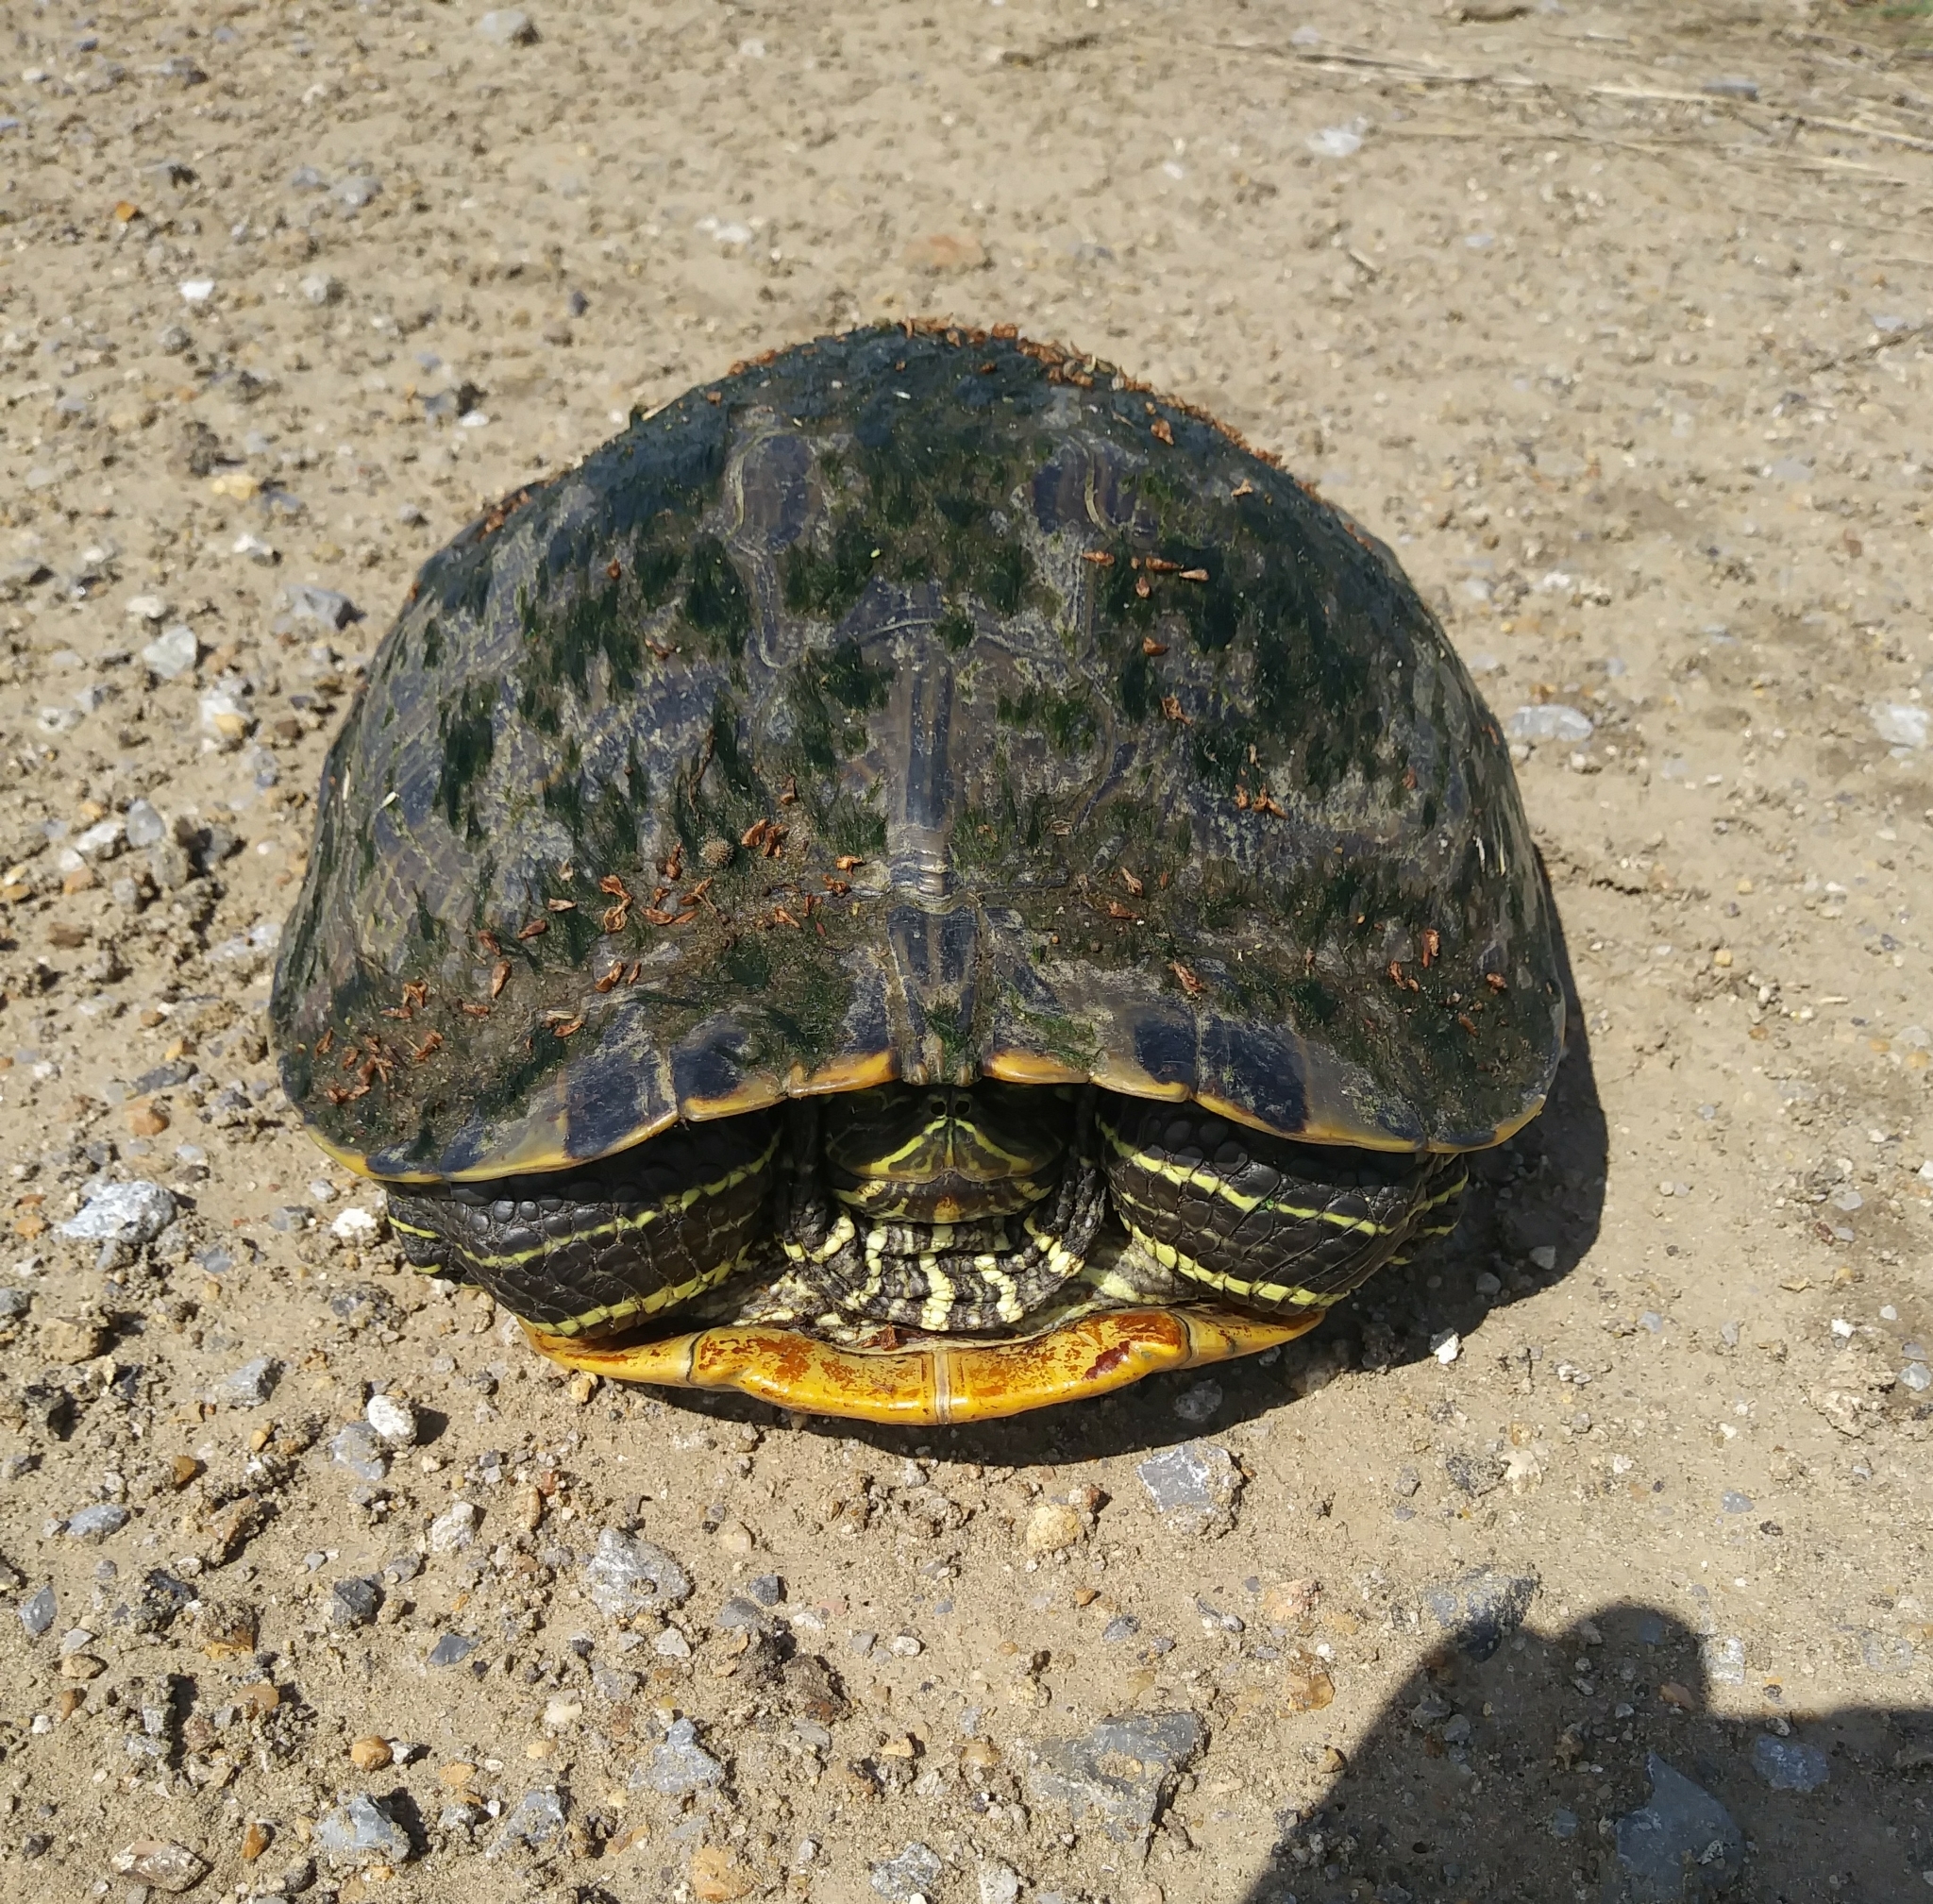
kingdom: Animalia
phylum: Chordata
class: Testudines
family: Emydidae
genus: Trachemys
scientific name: Trachemys scripta
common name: Slider
